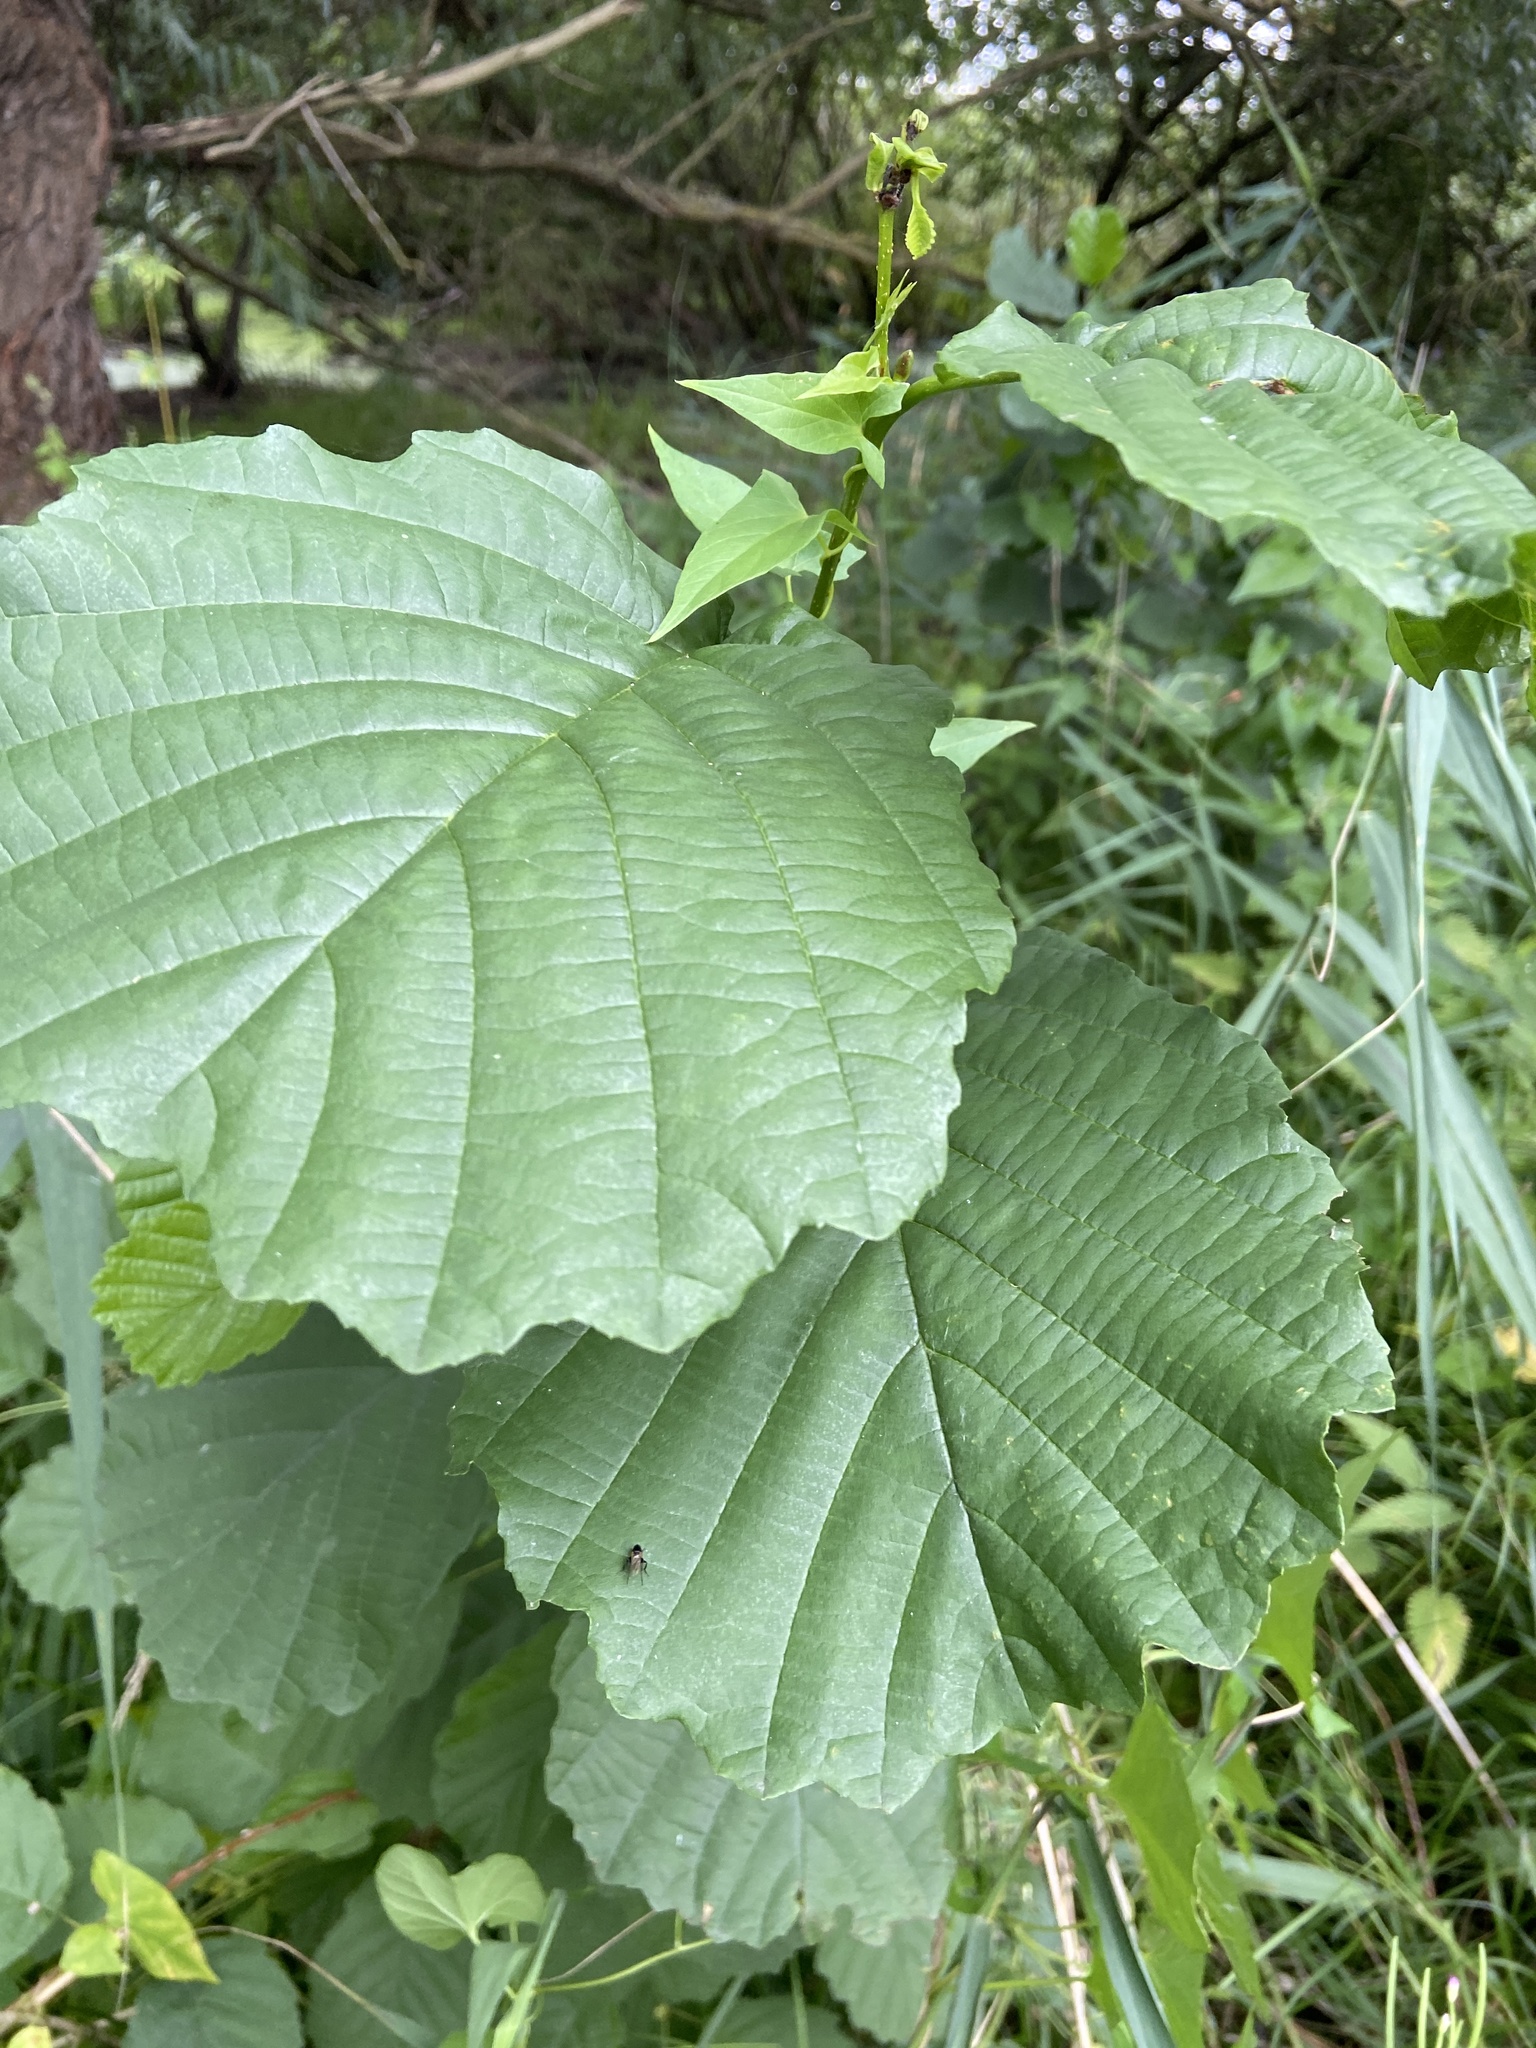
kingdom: Plantae
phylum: Tracheophyta
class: Magnoliopsida
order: Fagales
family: Betulaceae
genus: Alnus
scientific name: Alnus glutinosa
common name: Black alder
